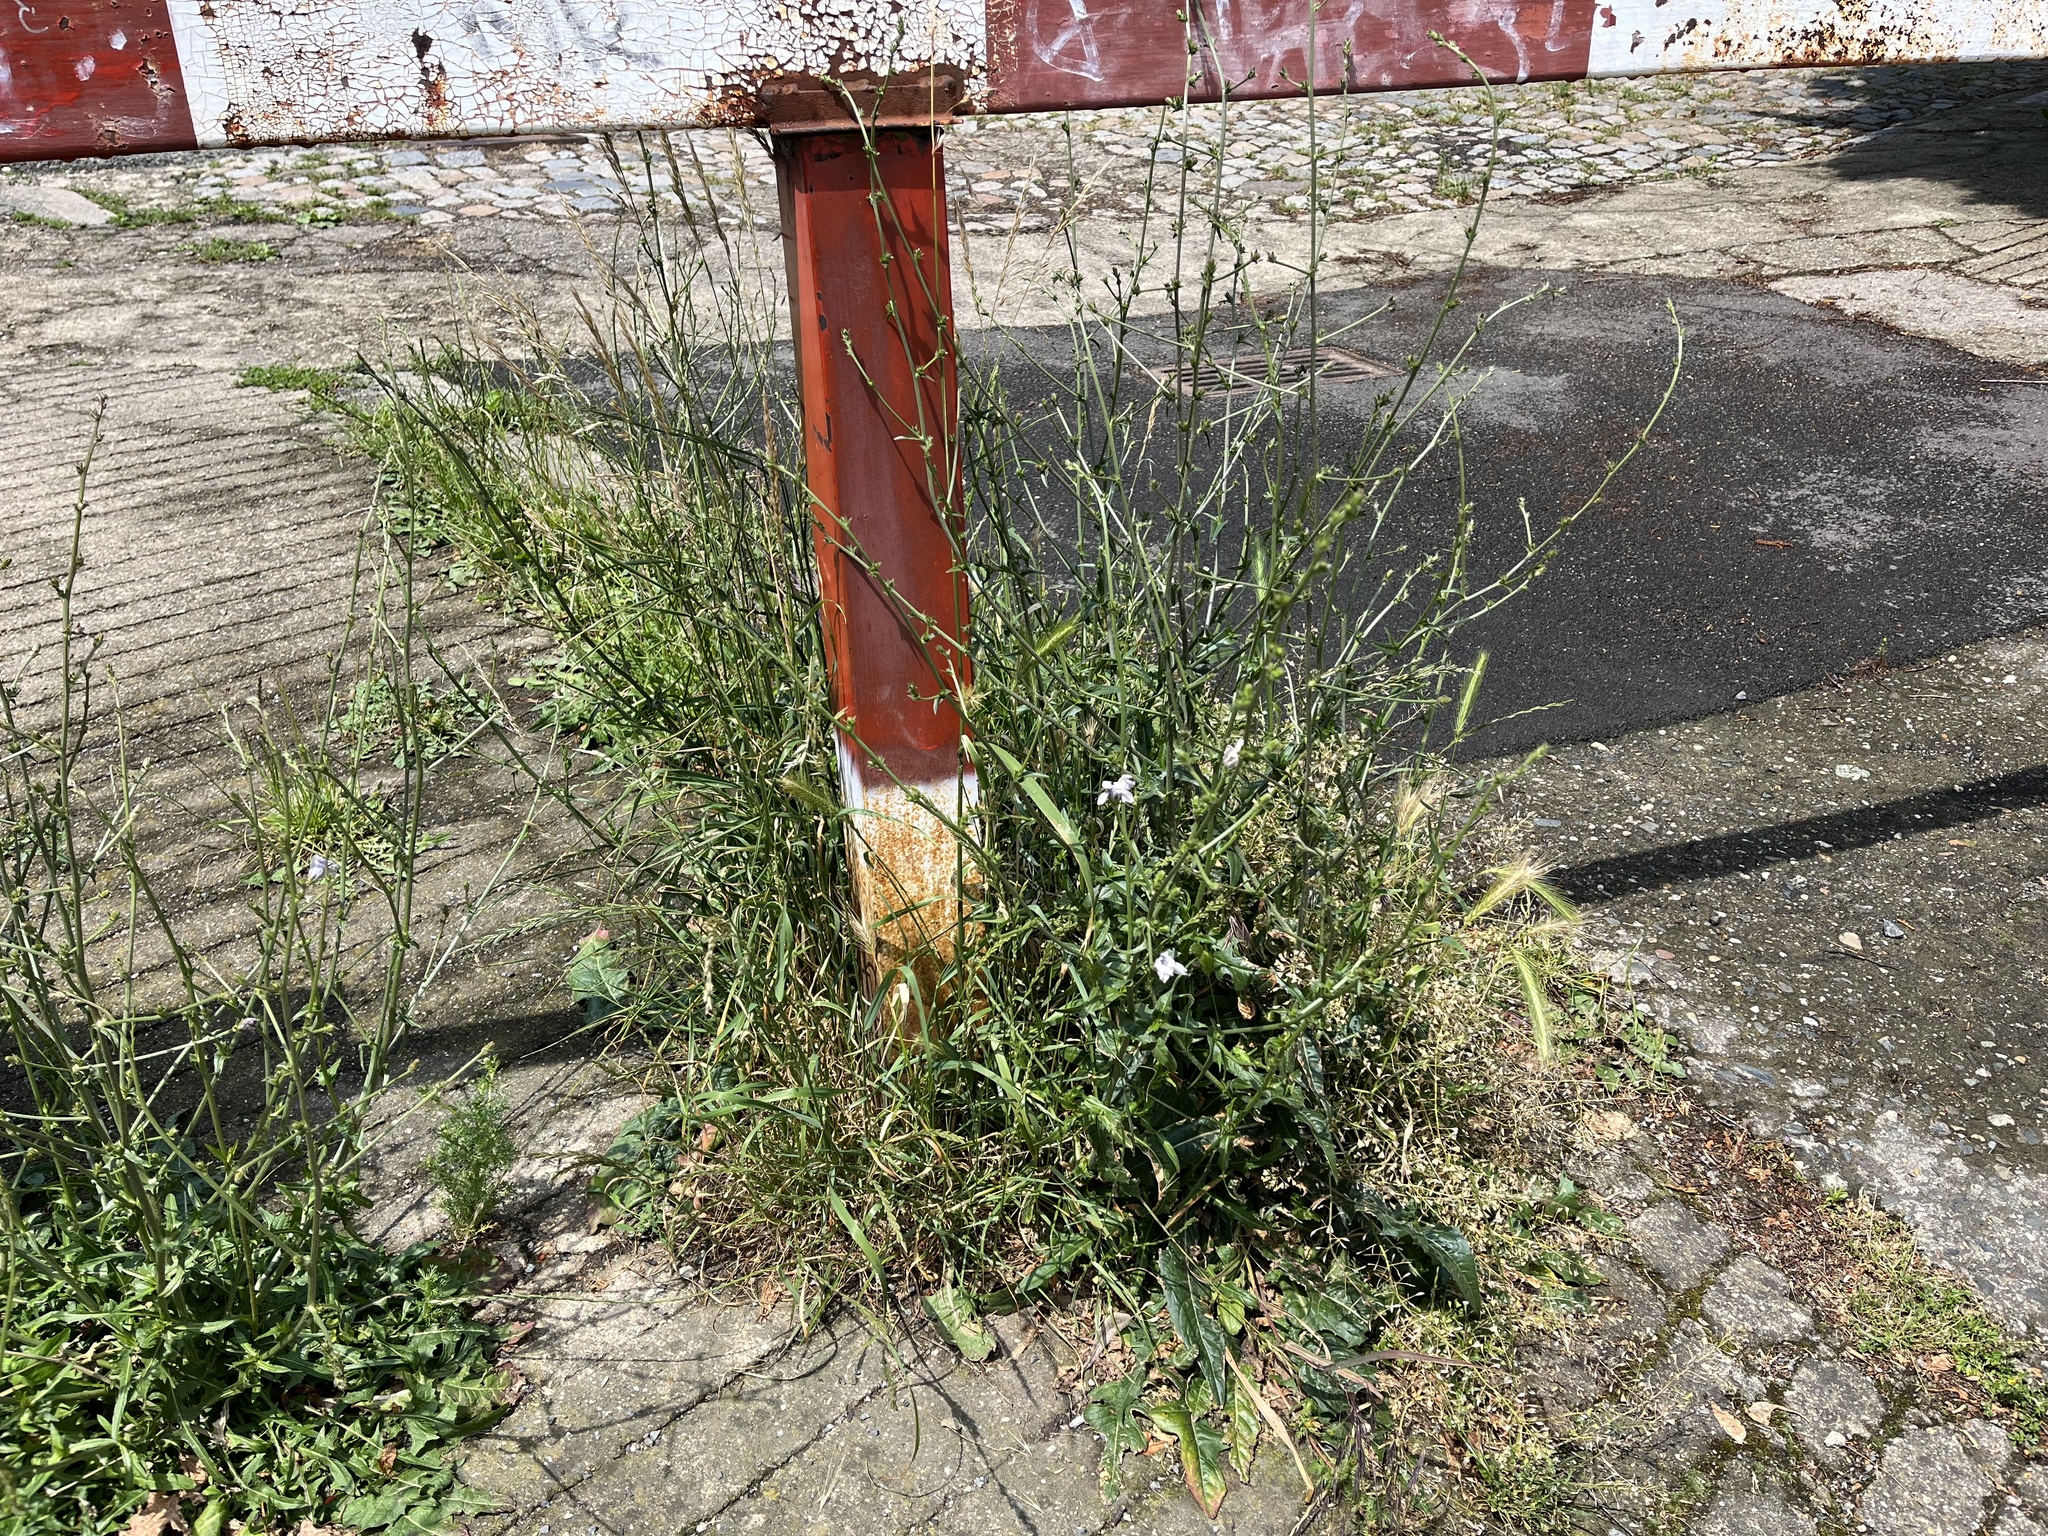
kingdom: Plantae
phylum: Tracheophyta
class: Magnoliopsida
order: Asterales
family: Asteraceae
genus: Cichorium
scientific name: Cichorium intybus
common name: Chicory
